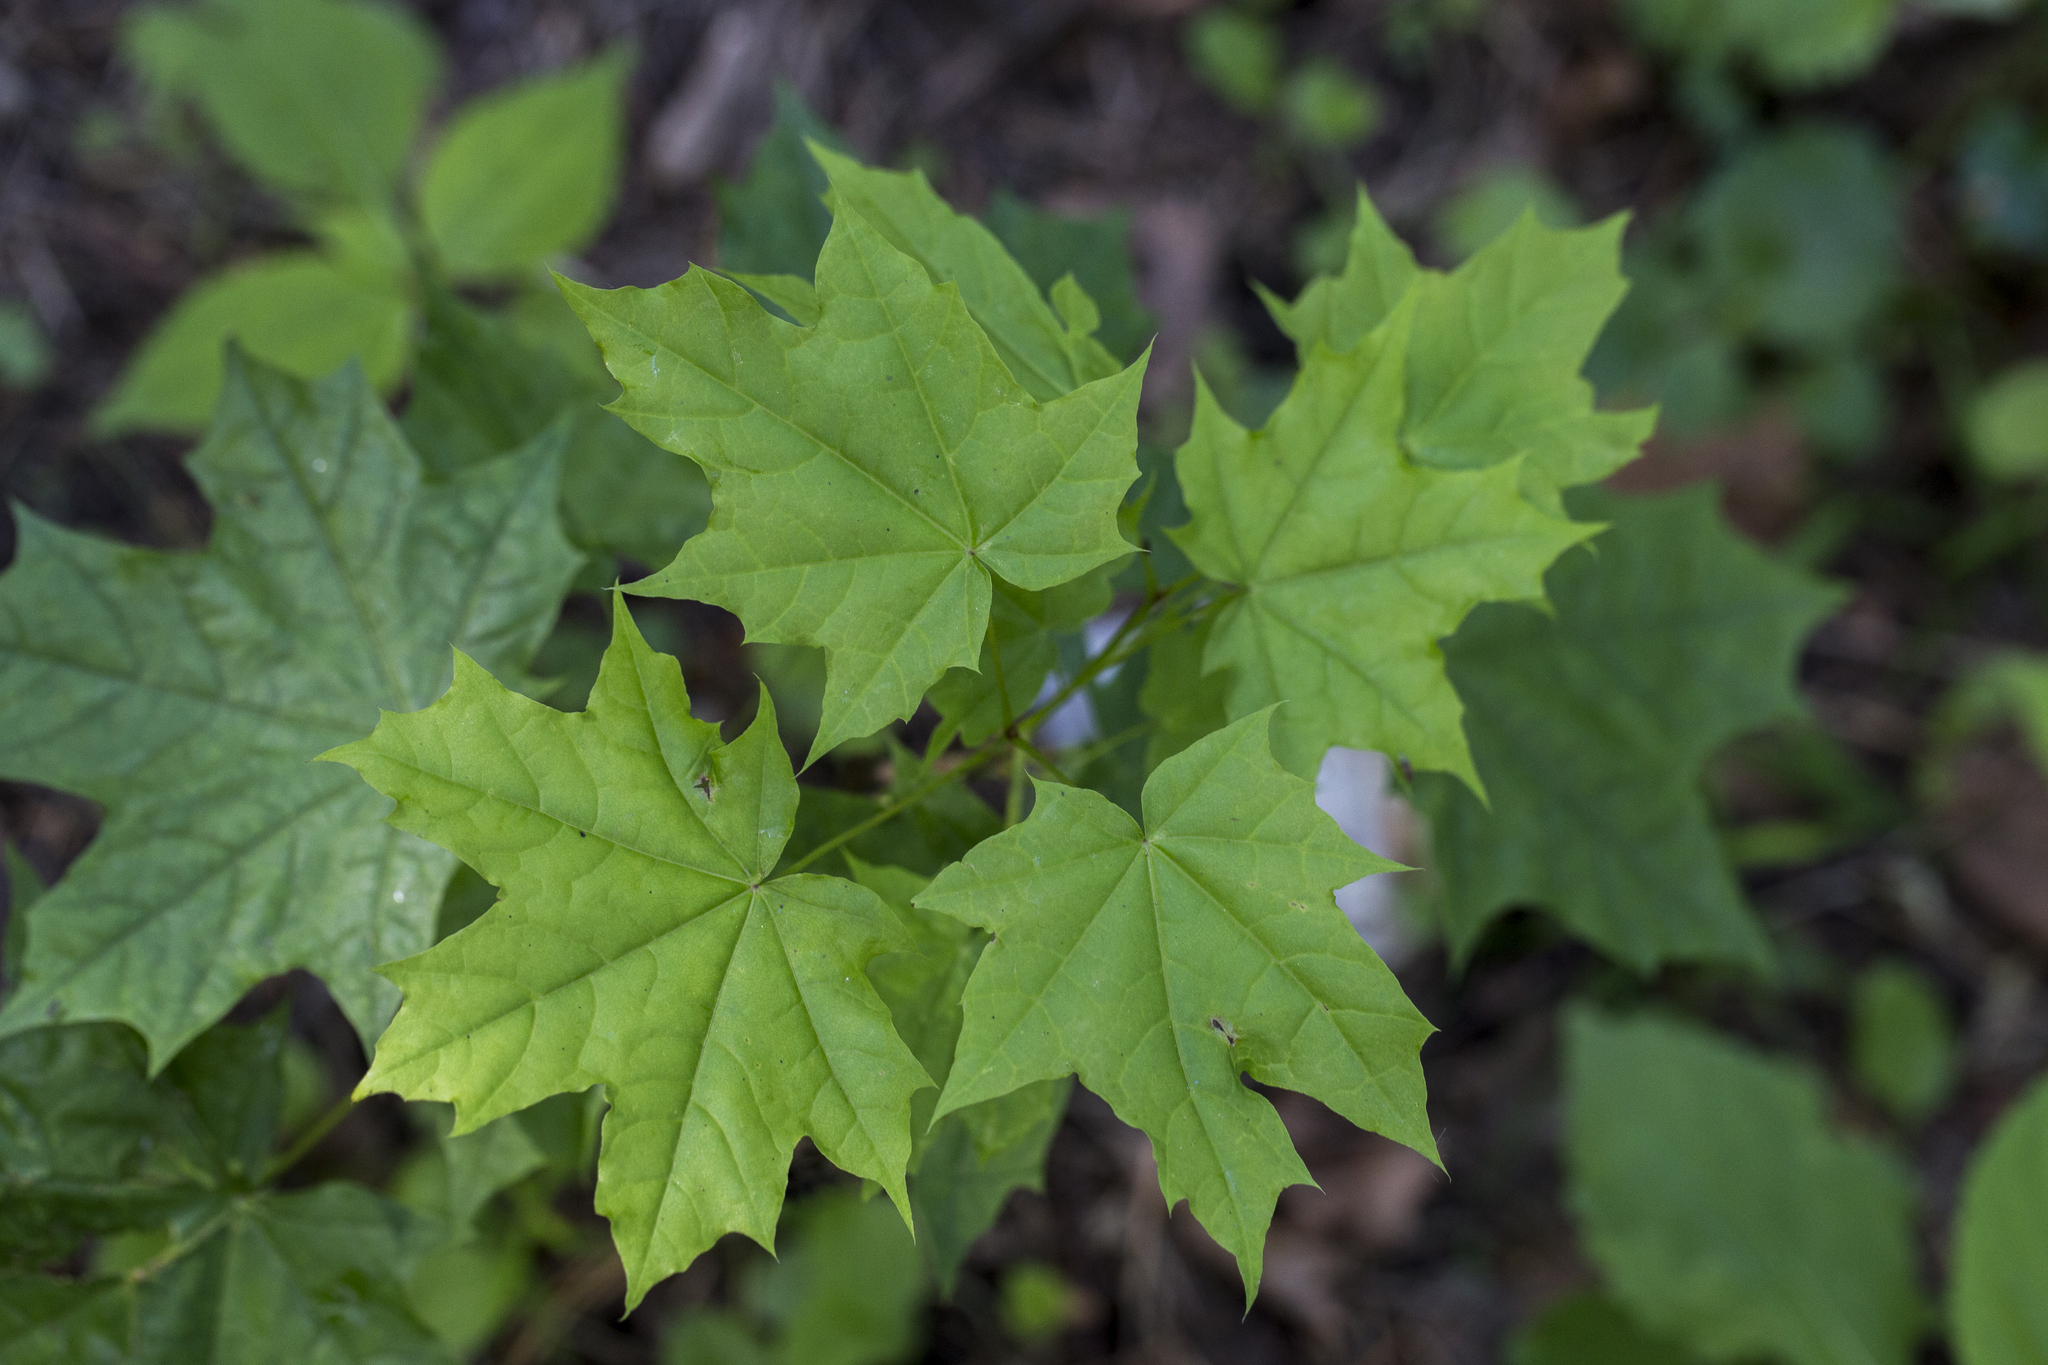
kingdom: Plantae
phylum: Tracheophyta
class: Magnoliopsida
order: Sapindales
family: Sapindaceae
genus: Acer
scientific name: Acer platanoides
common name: Norway maple
